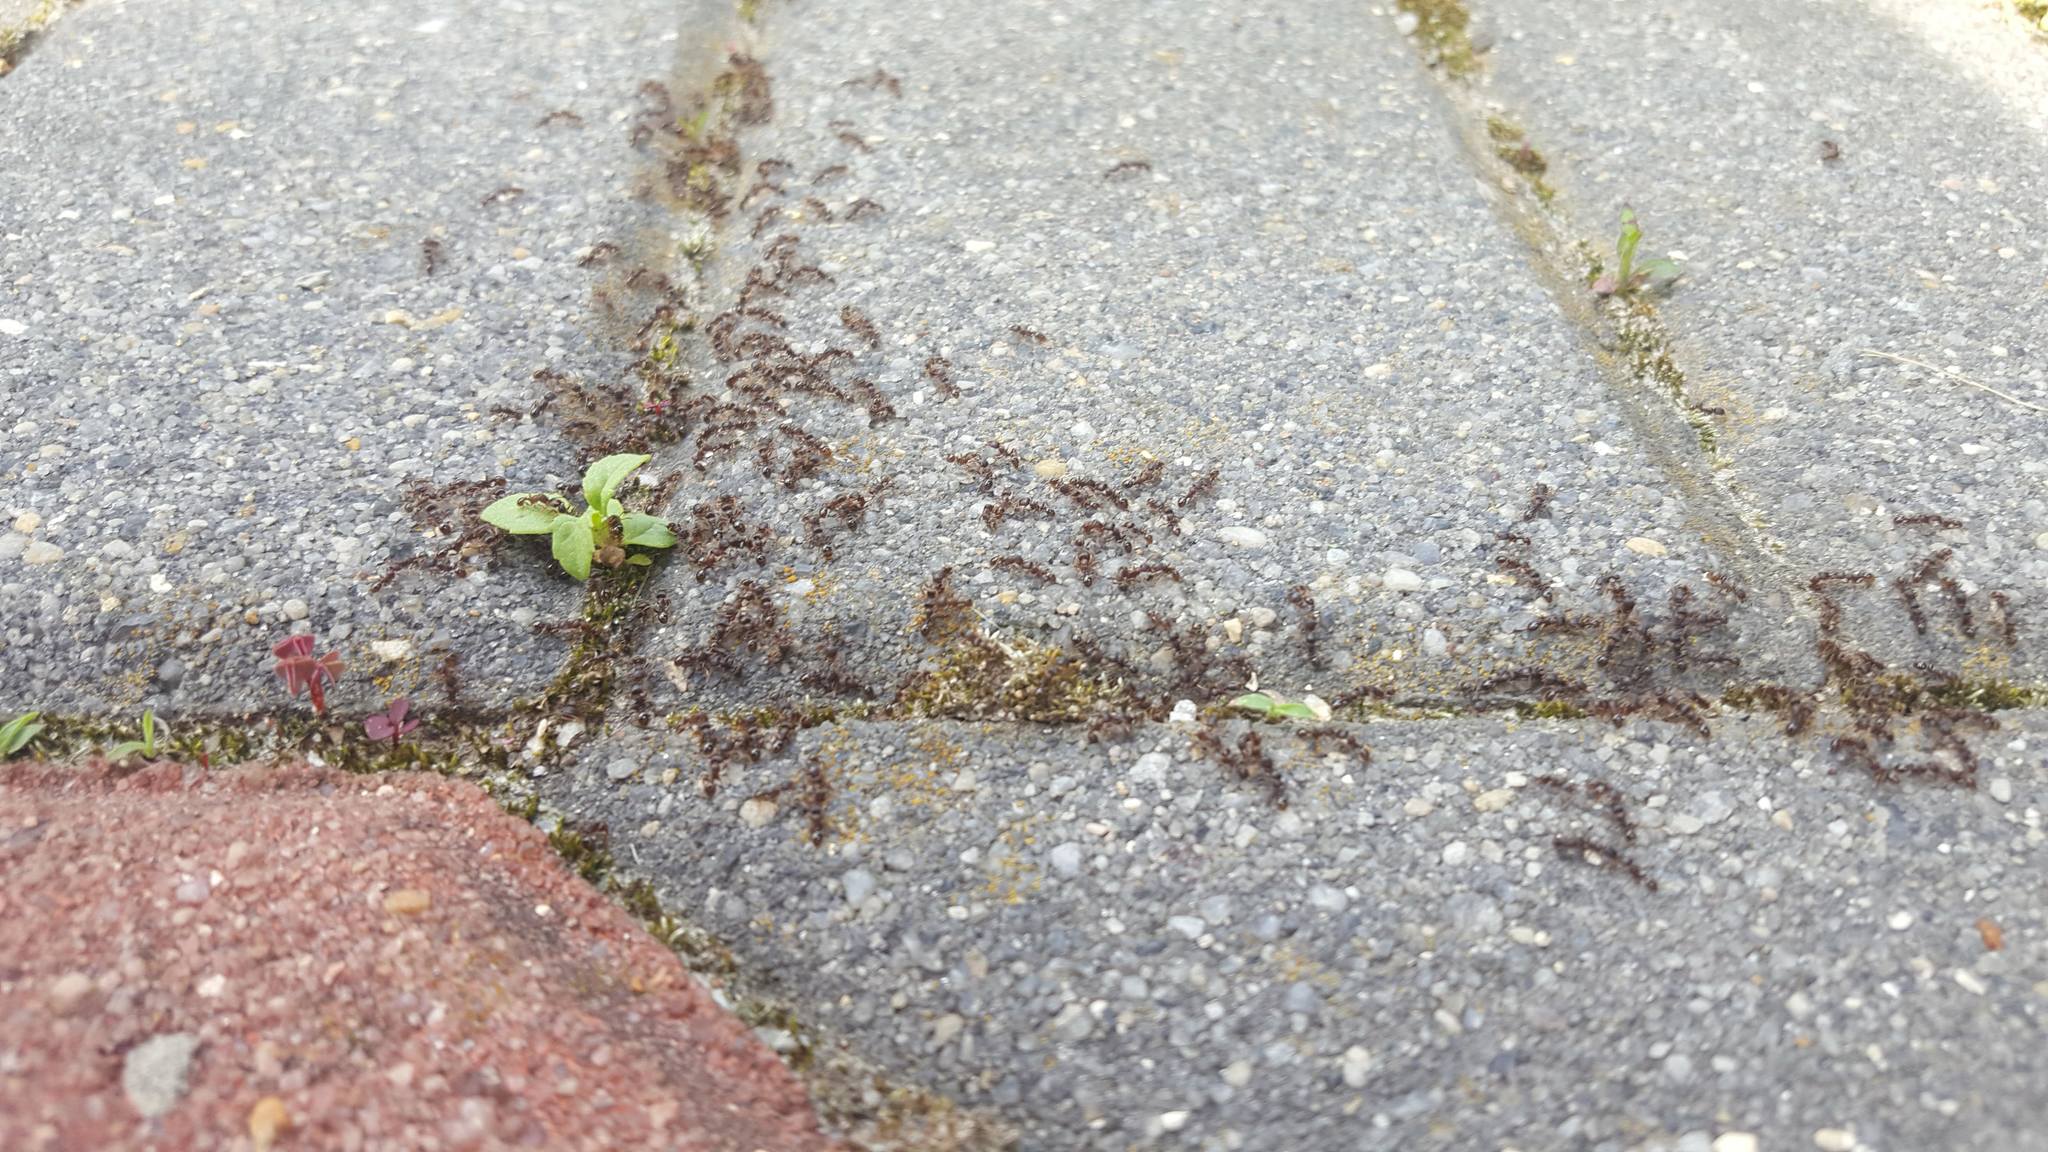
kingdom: Animalia
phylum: Arthropoda
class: Insecta
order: Hymenoptera
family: Formicidae
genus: Tetramorium
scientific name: Tetramorium immigrans
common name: Pavement ant
